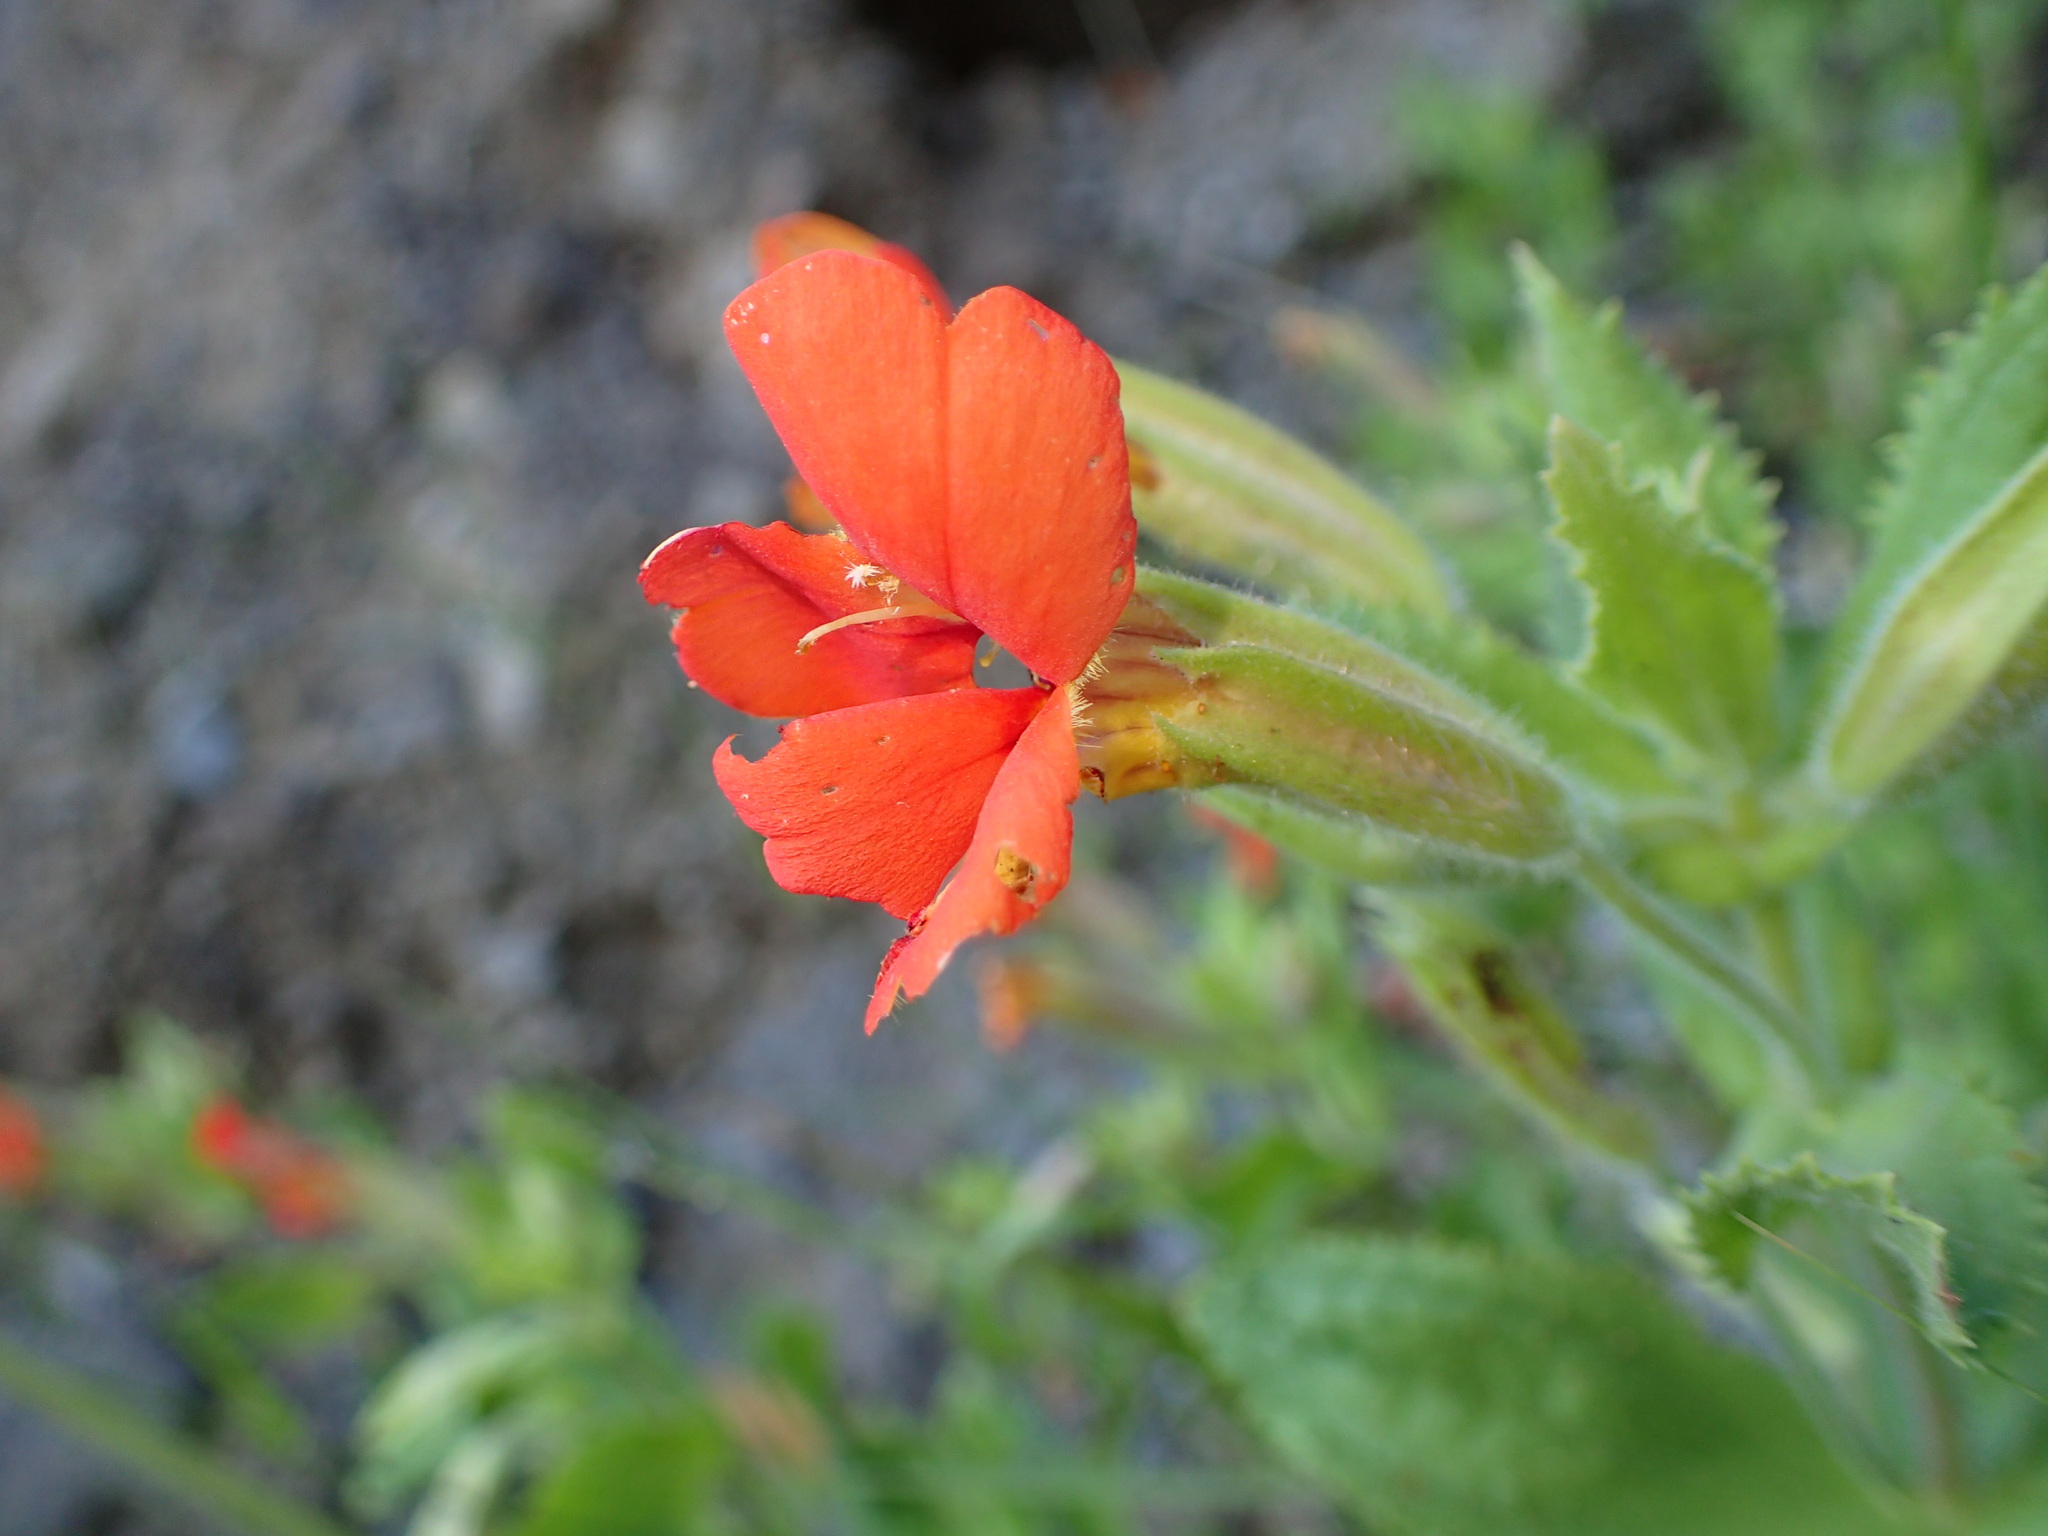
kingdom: Plantae
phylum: Tracheophyta
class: Magnoliopsida
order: Lamiales
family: Phrymaceae
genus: Erythranthe
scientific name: Erythranthe cardinalis
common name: Scarlet monkey-flower
